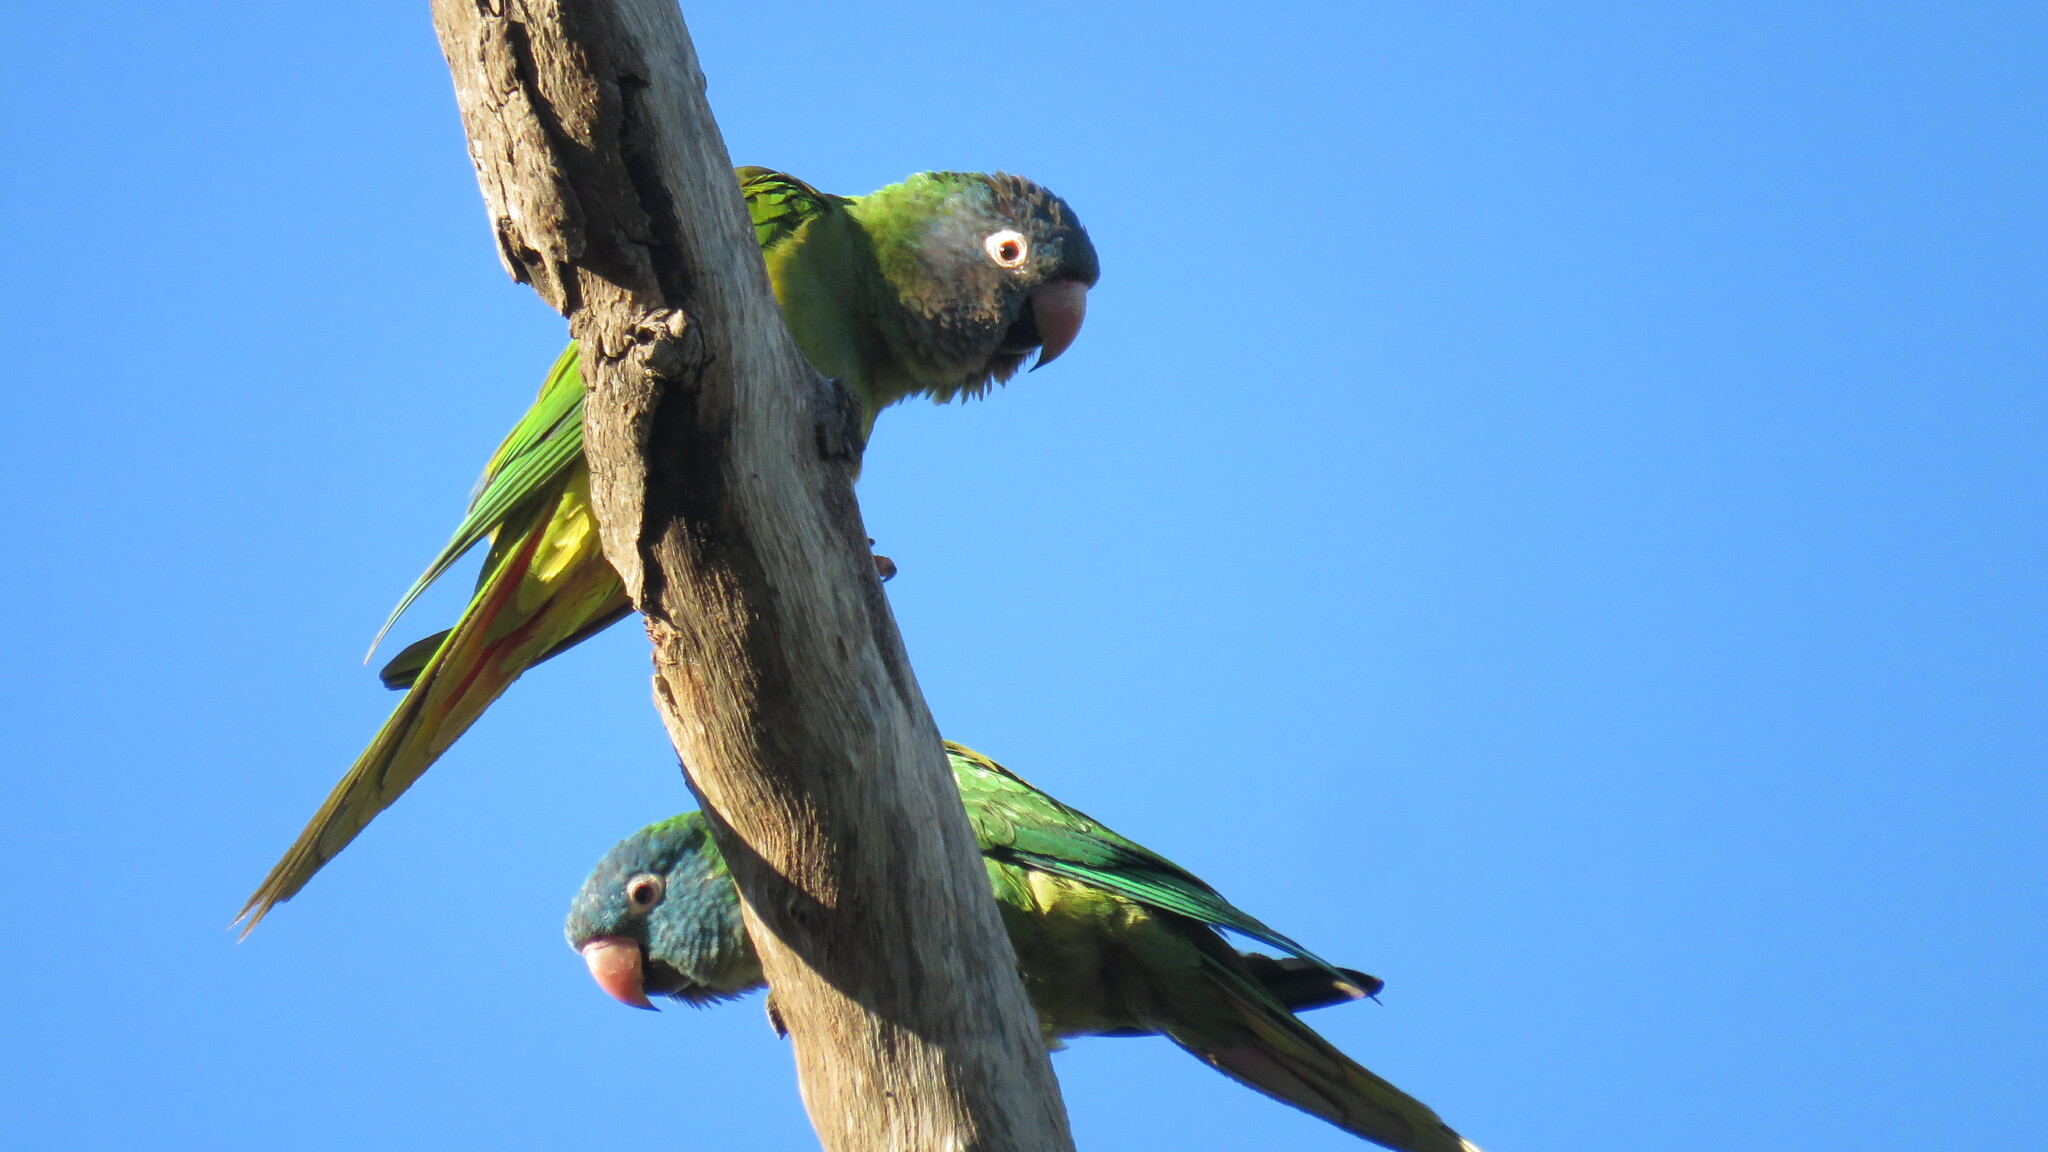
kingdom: Animalia
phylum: Chordata
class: Aves
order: Psittaciformes
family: Psittacidae
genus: Aratinga
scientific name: Aratinga acuticaudata
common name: Blue-crowned parakeet
